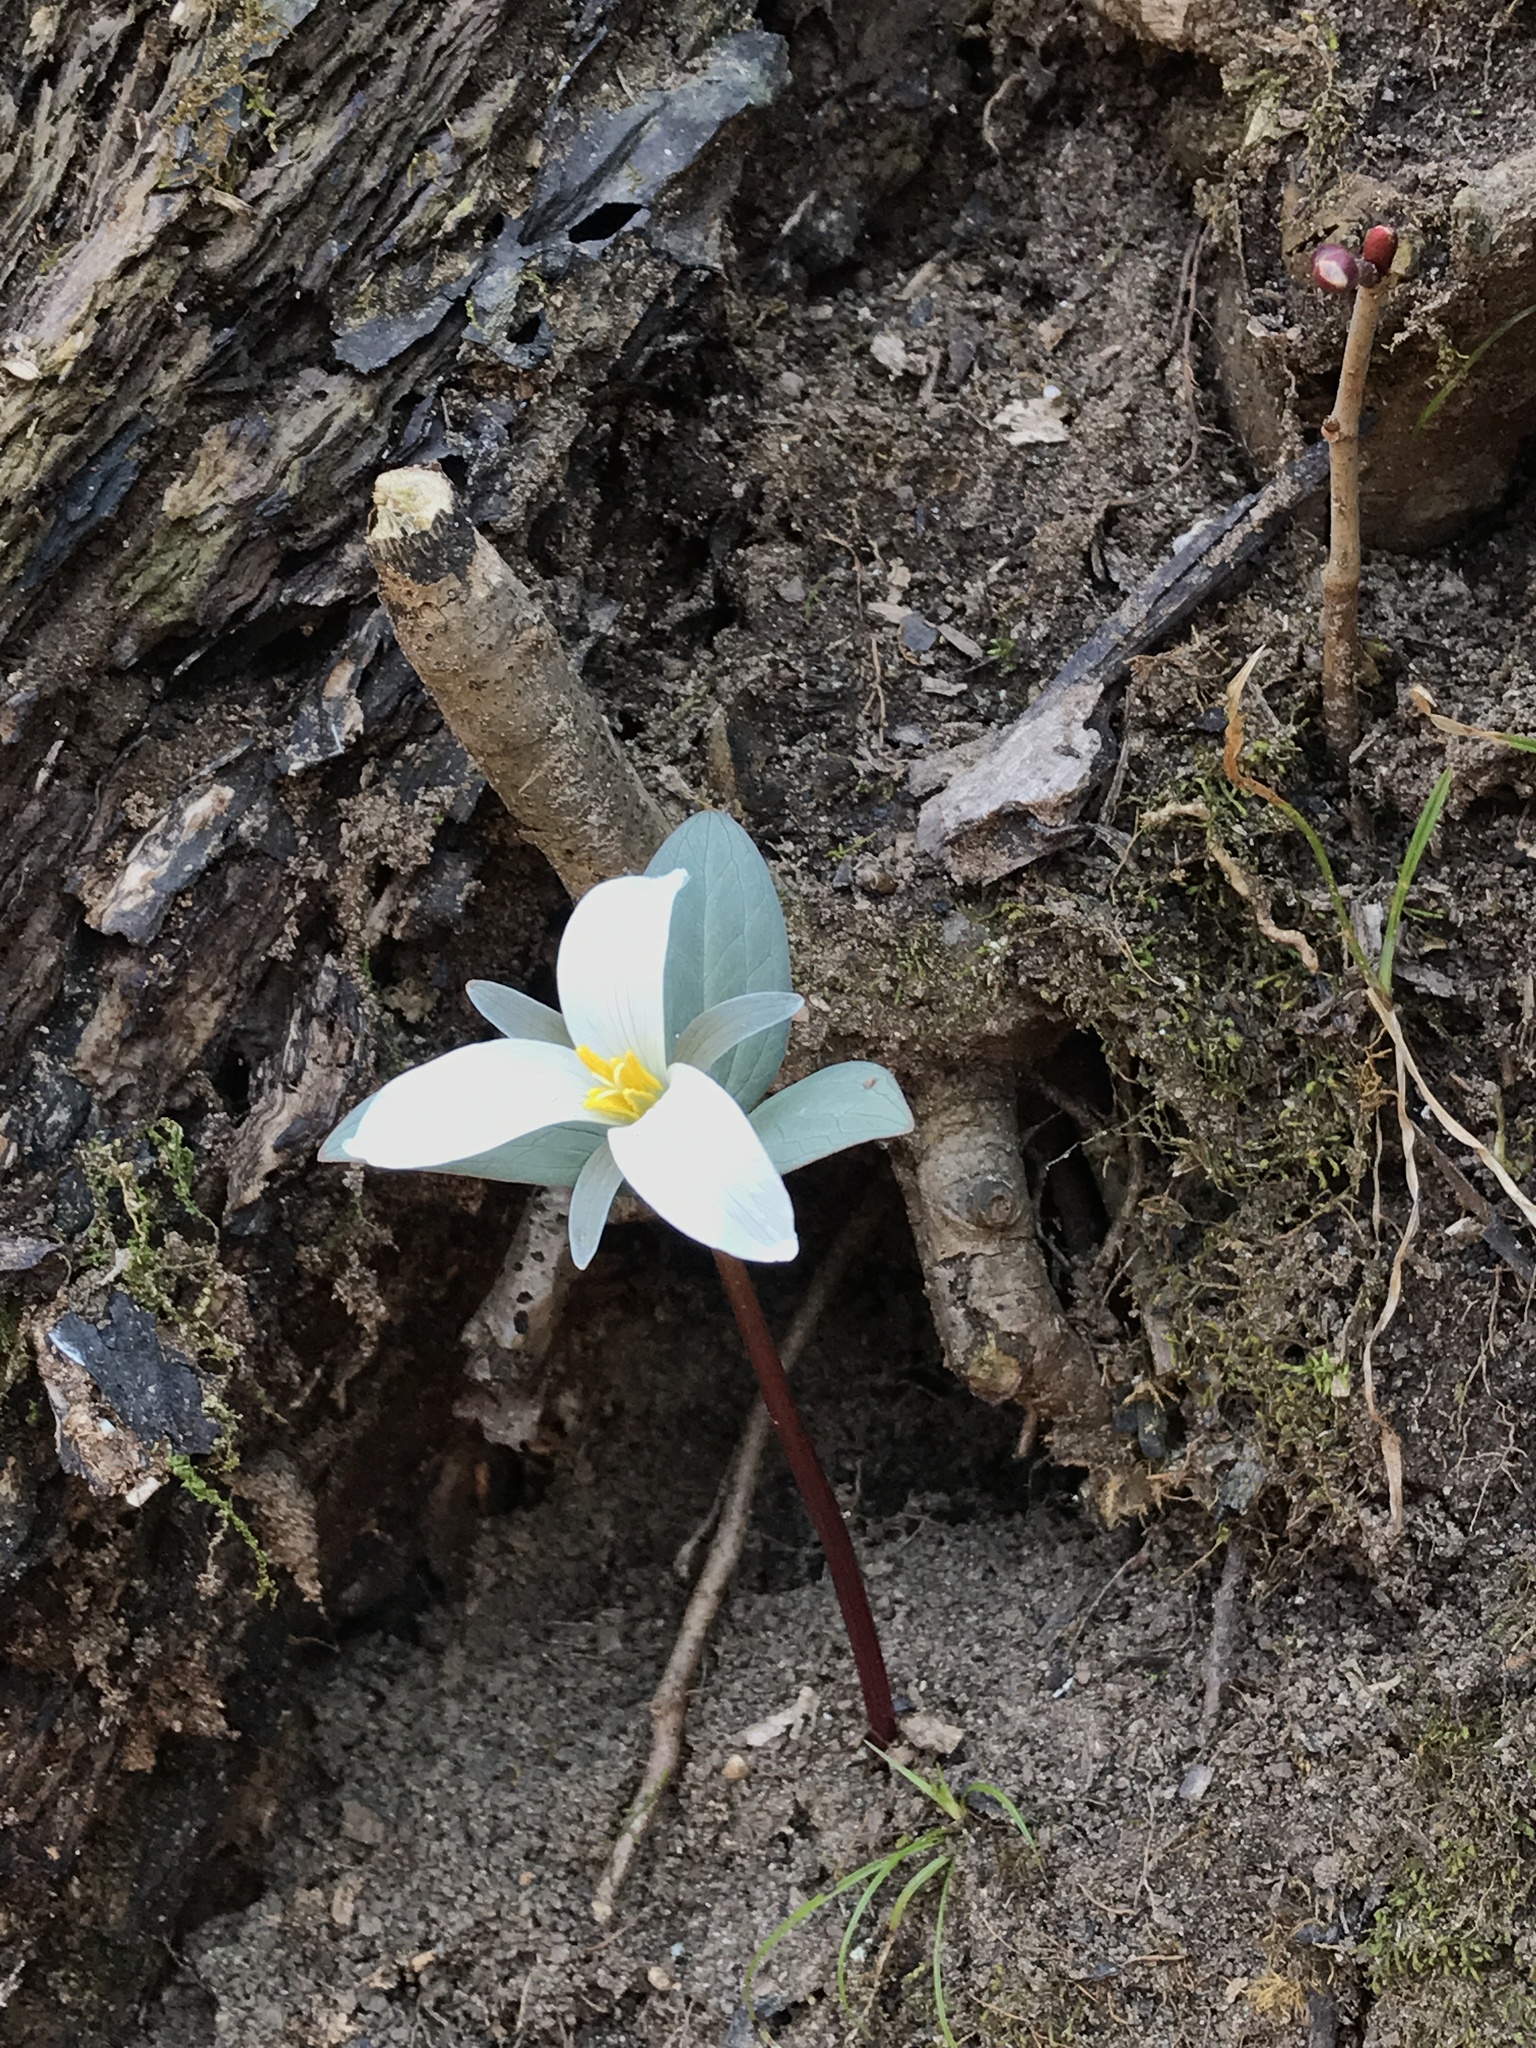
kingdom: Plantae
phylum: Tracheophyta
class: Liliopsida
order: Liliales
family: Melanthiaceae
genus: Trillium
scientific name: Trillium nivale
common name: Dwarf white trillium
